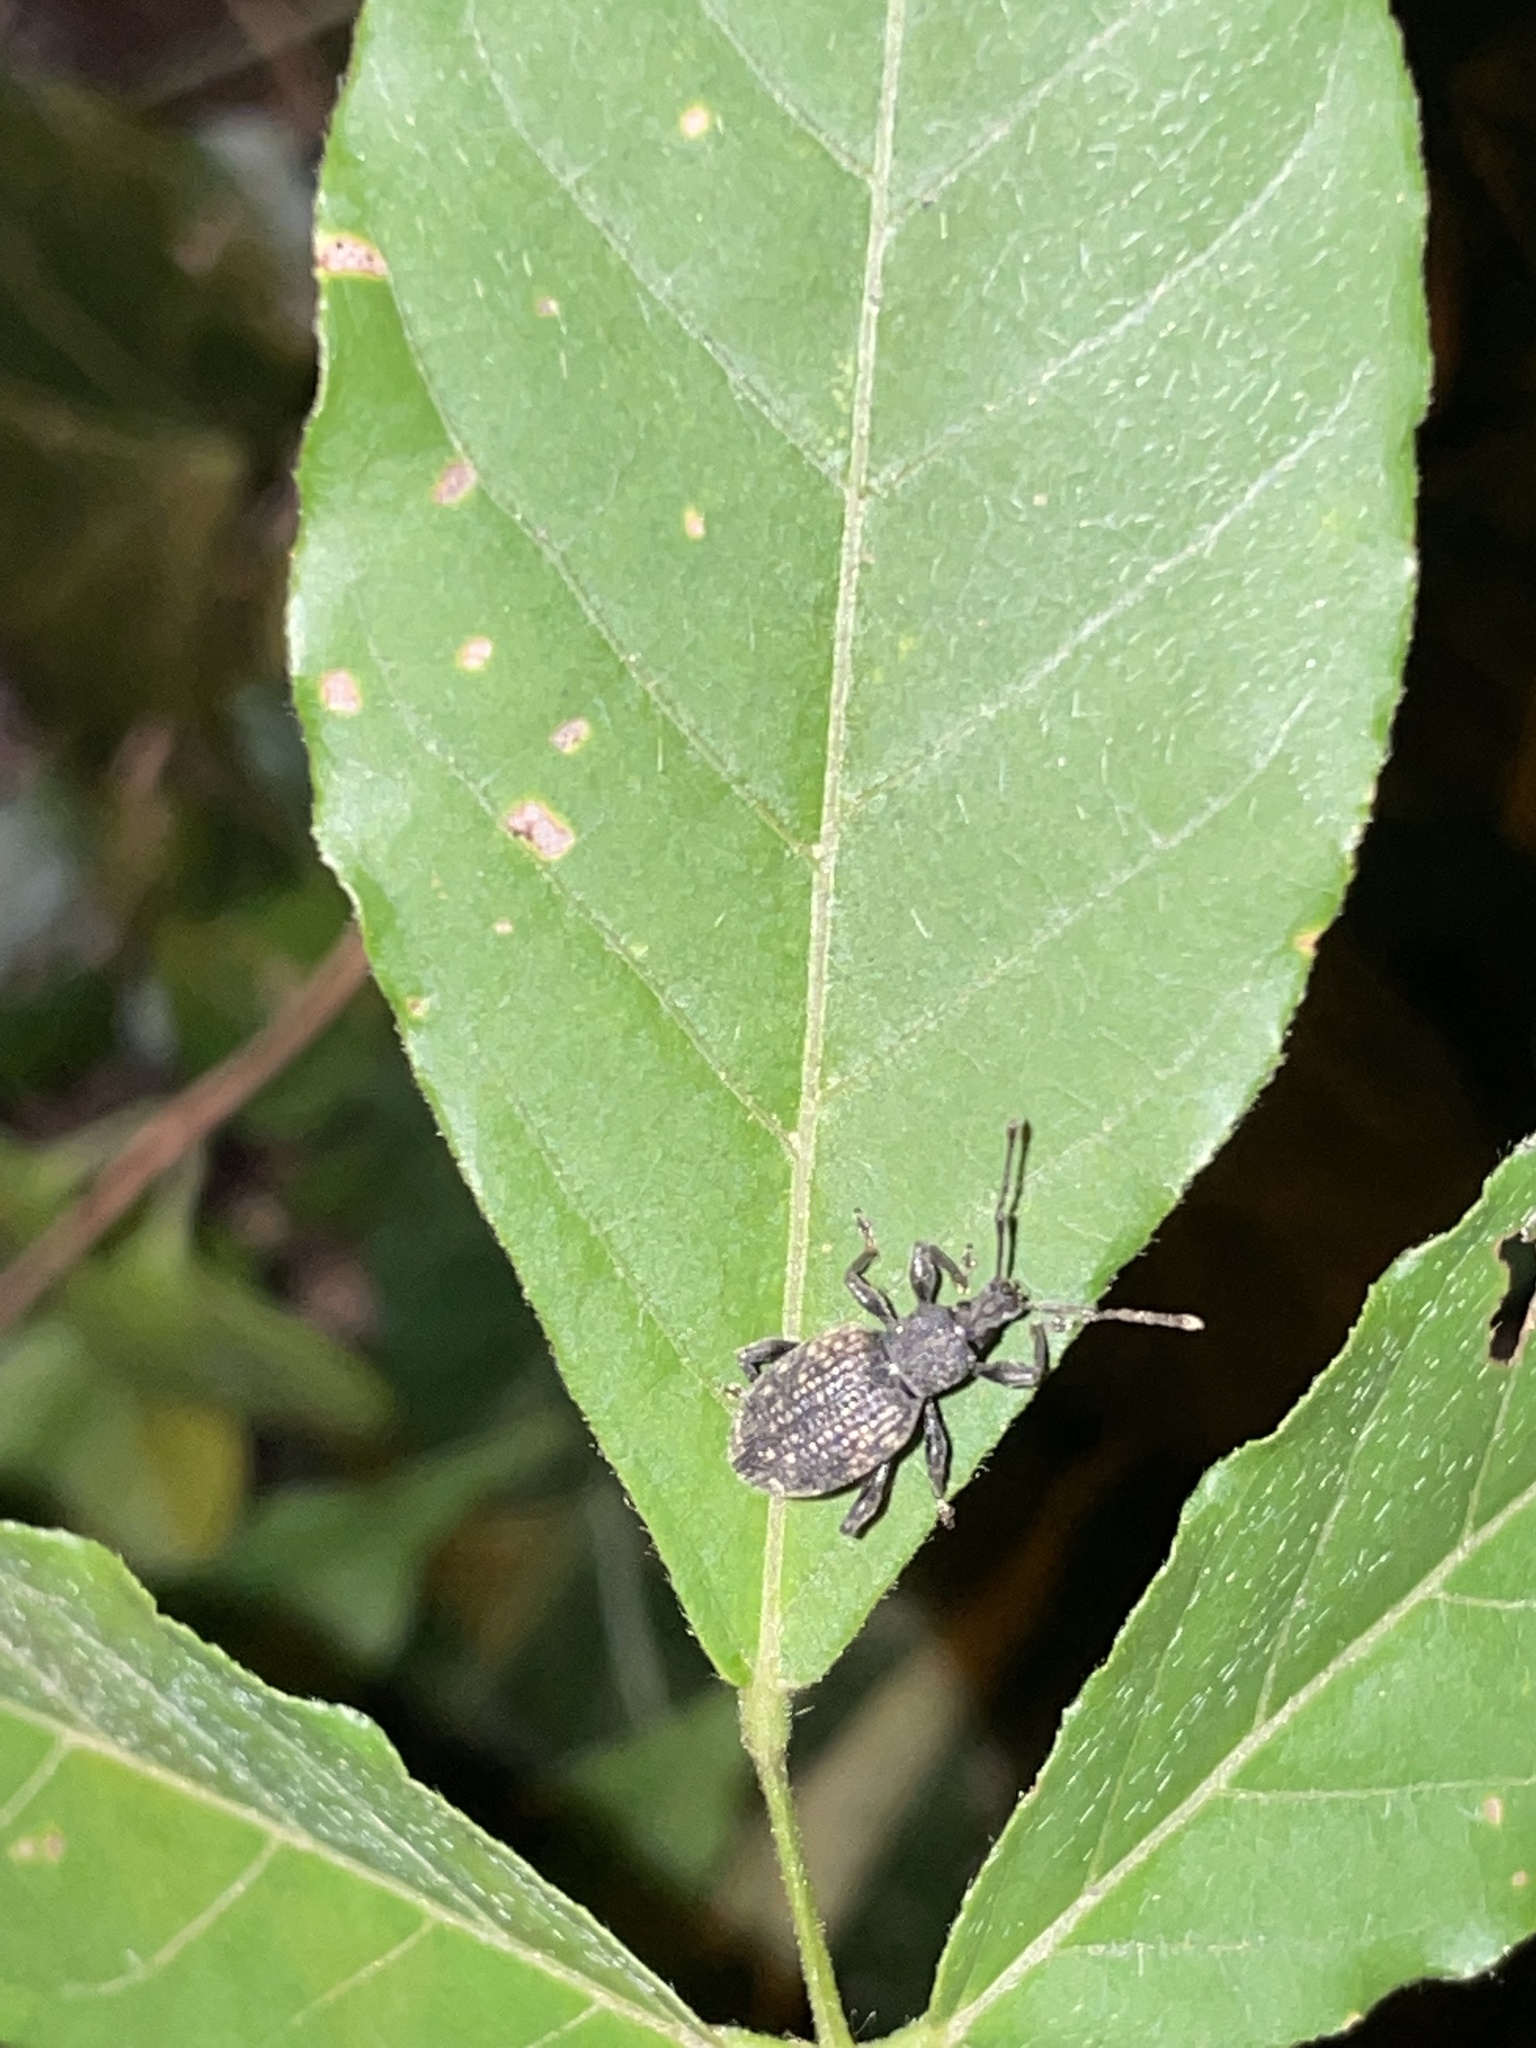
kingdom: Animalia
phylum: Arthropoda
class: Insecta
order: Coleoptera
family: Curculionidae
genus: Otiorhynchus
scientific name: Otiorhynchus sulcatus
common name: Black vine weevil
